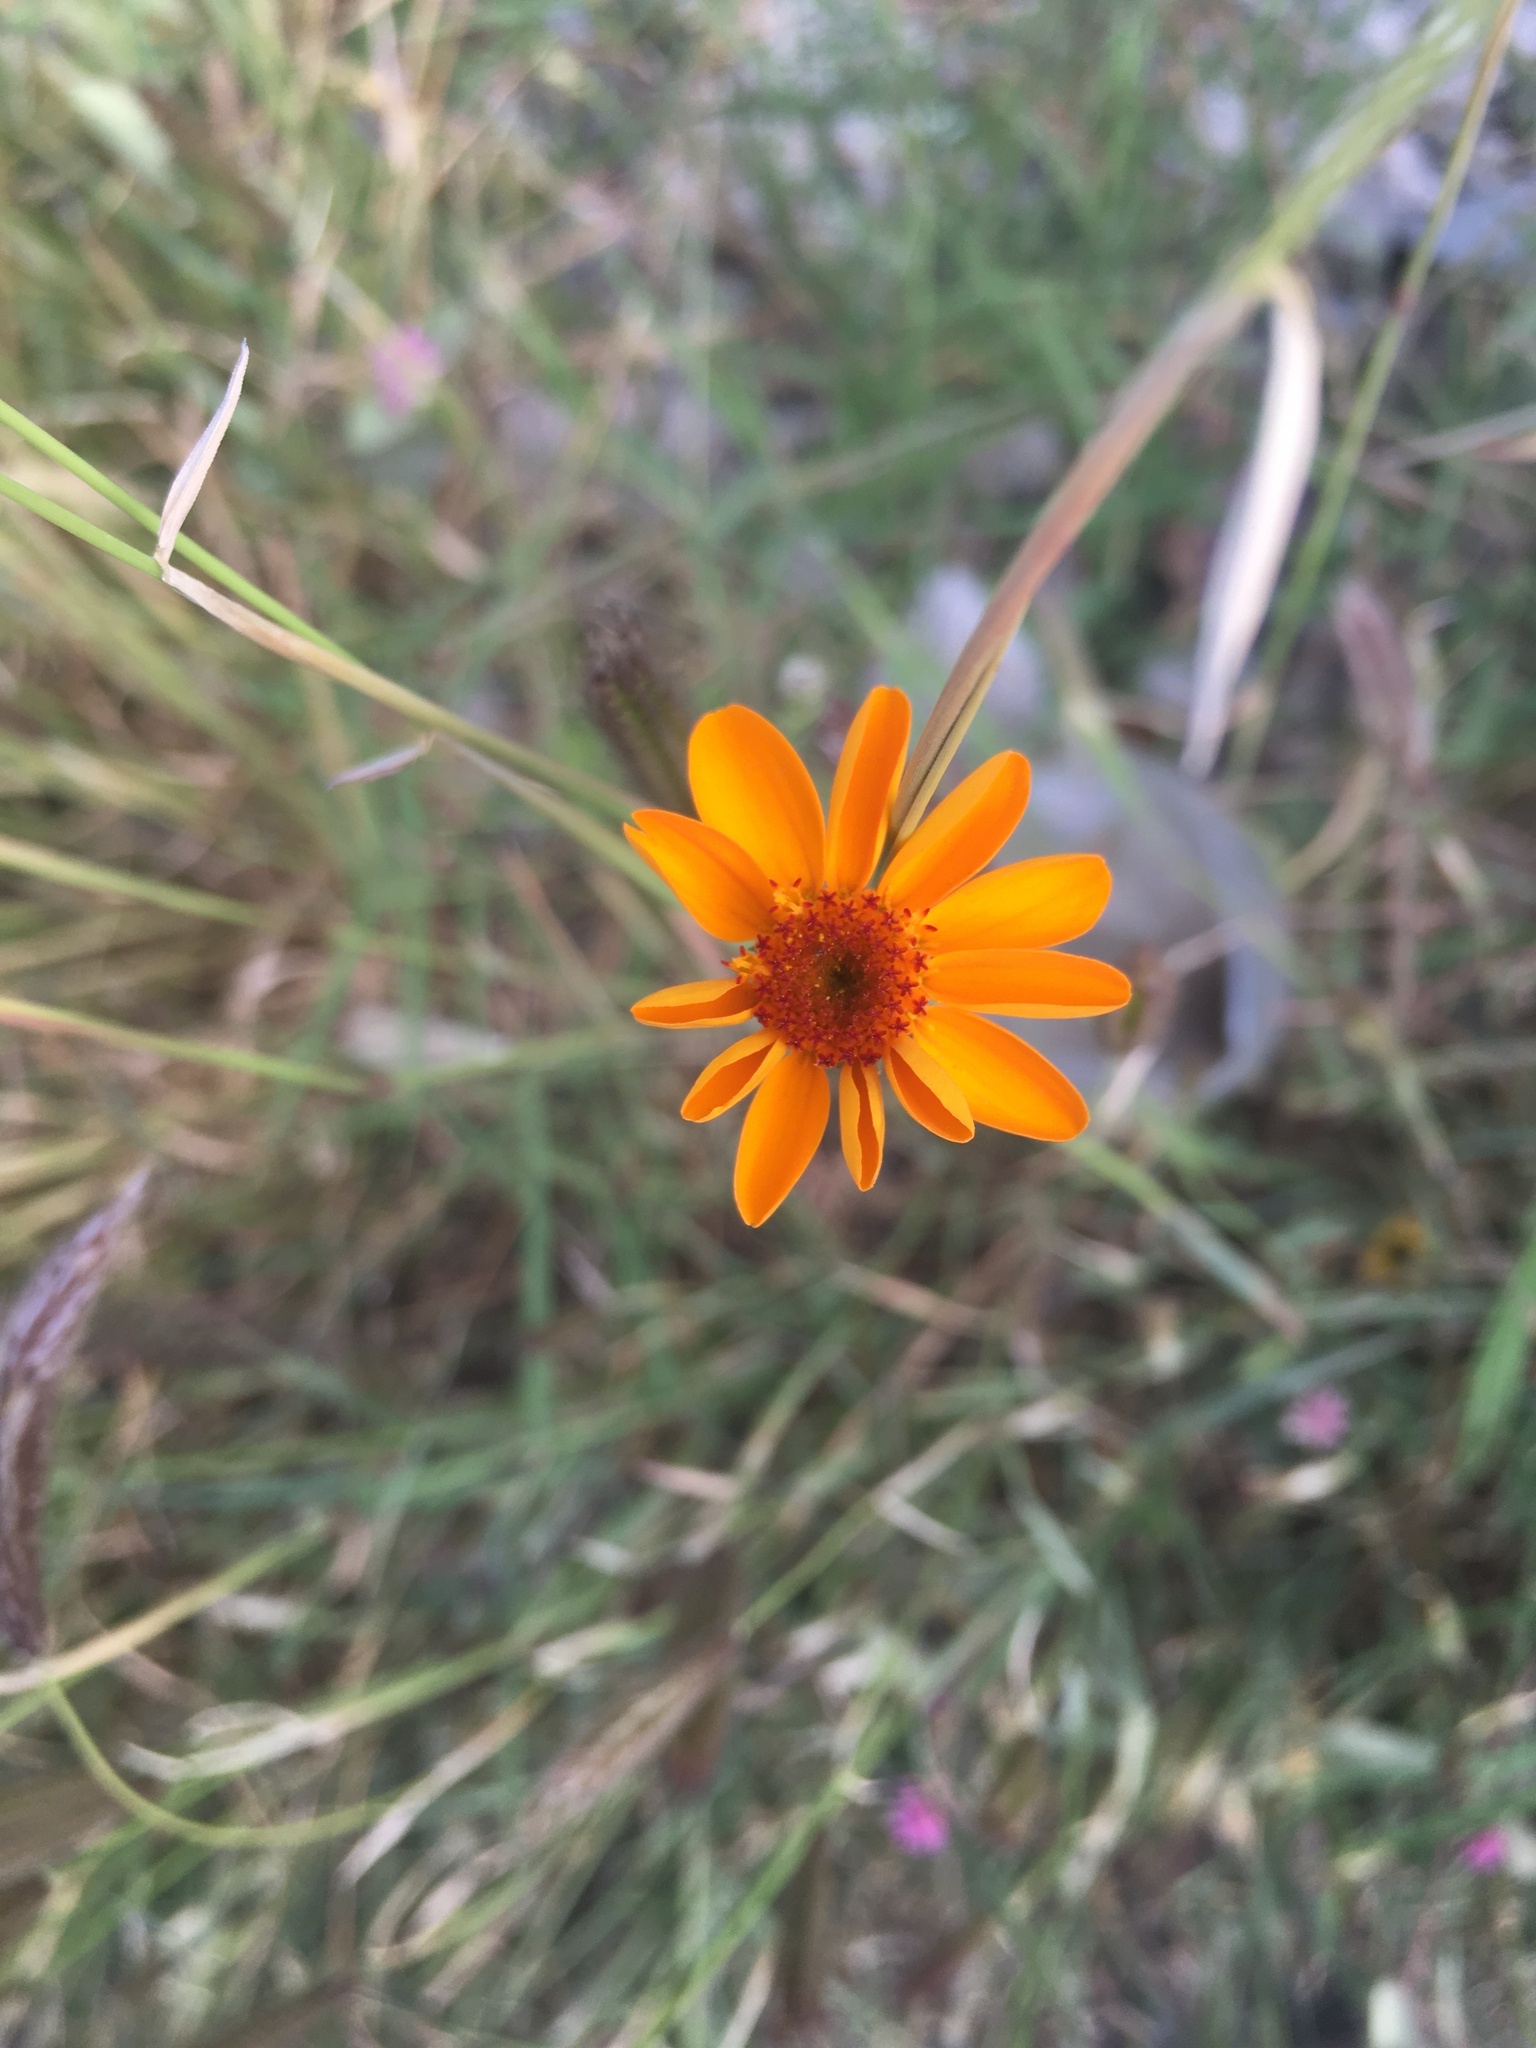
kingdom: Plantae
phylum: Tracheophyta
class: Magnoliopsida
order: Asterales
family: Asteraceae
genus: Adenophyllum
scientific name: Adenophyllum cancellatum
